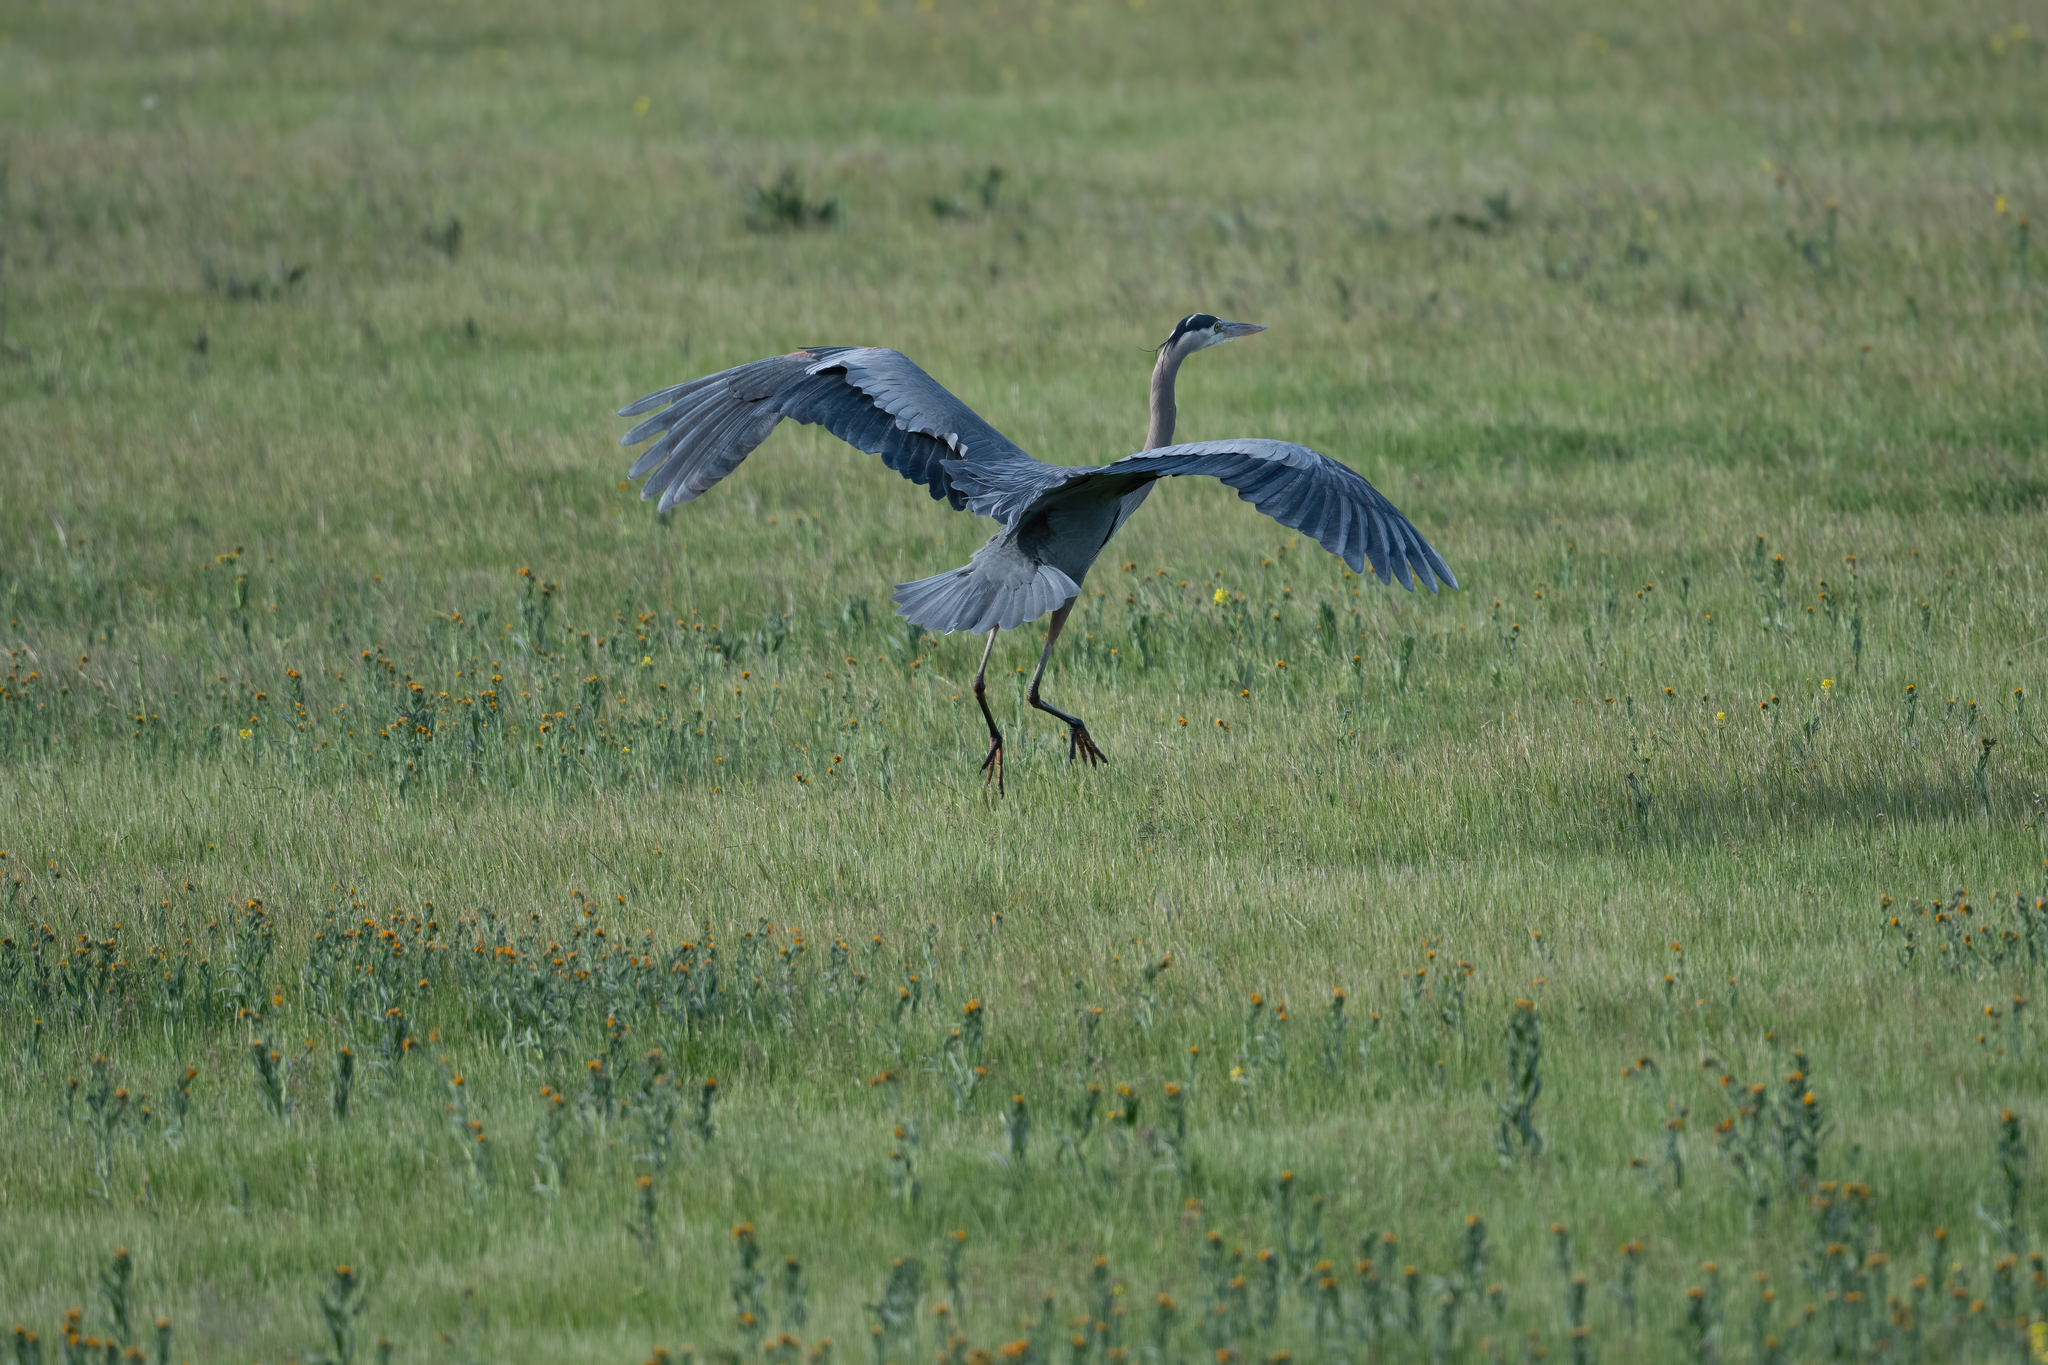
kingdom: Animalia
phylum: Chordata
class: Aves
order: Pelecaniformes
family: Ardeidae
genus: Ardea
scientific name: Ardea herodias
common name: Great blue heron
